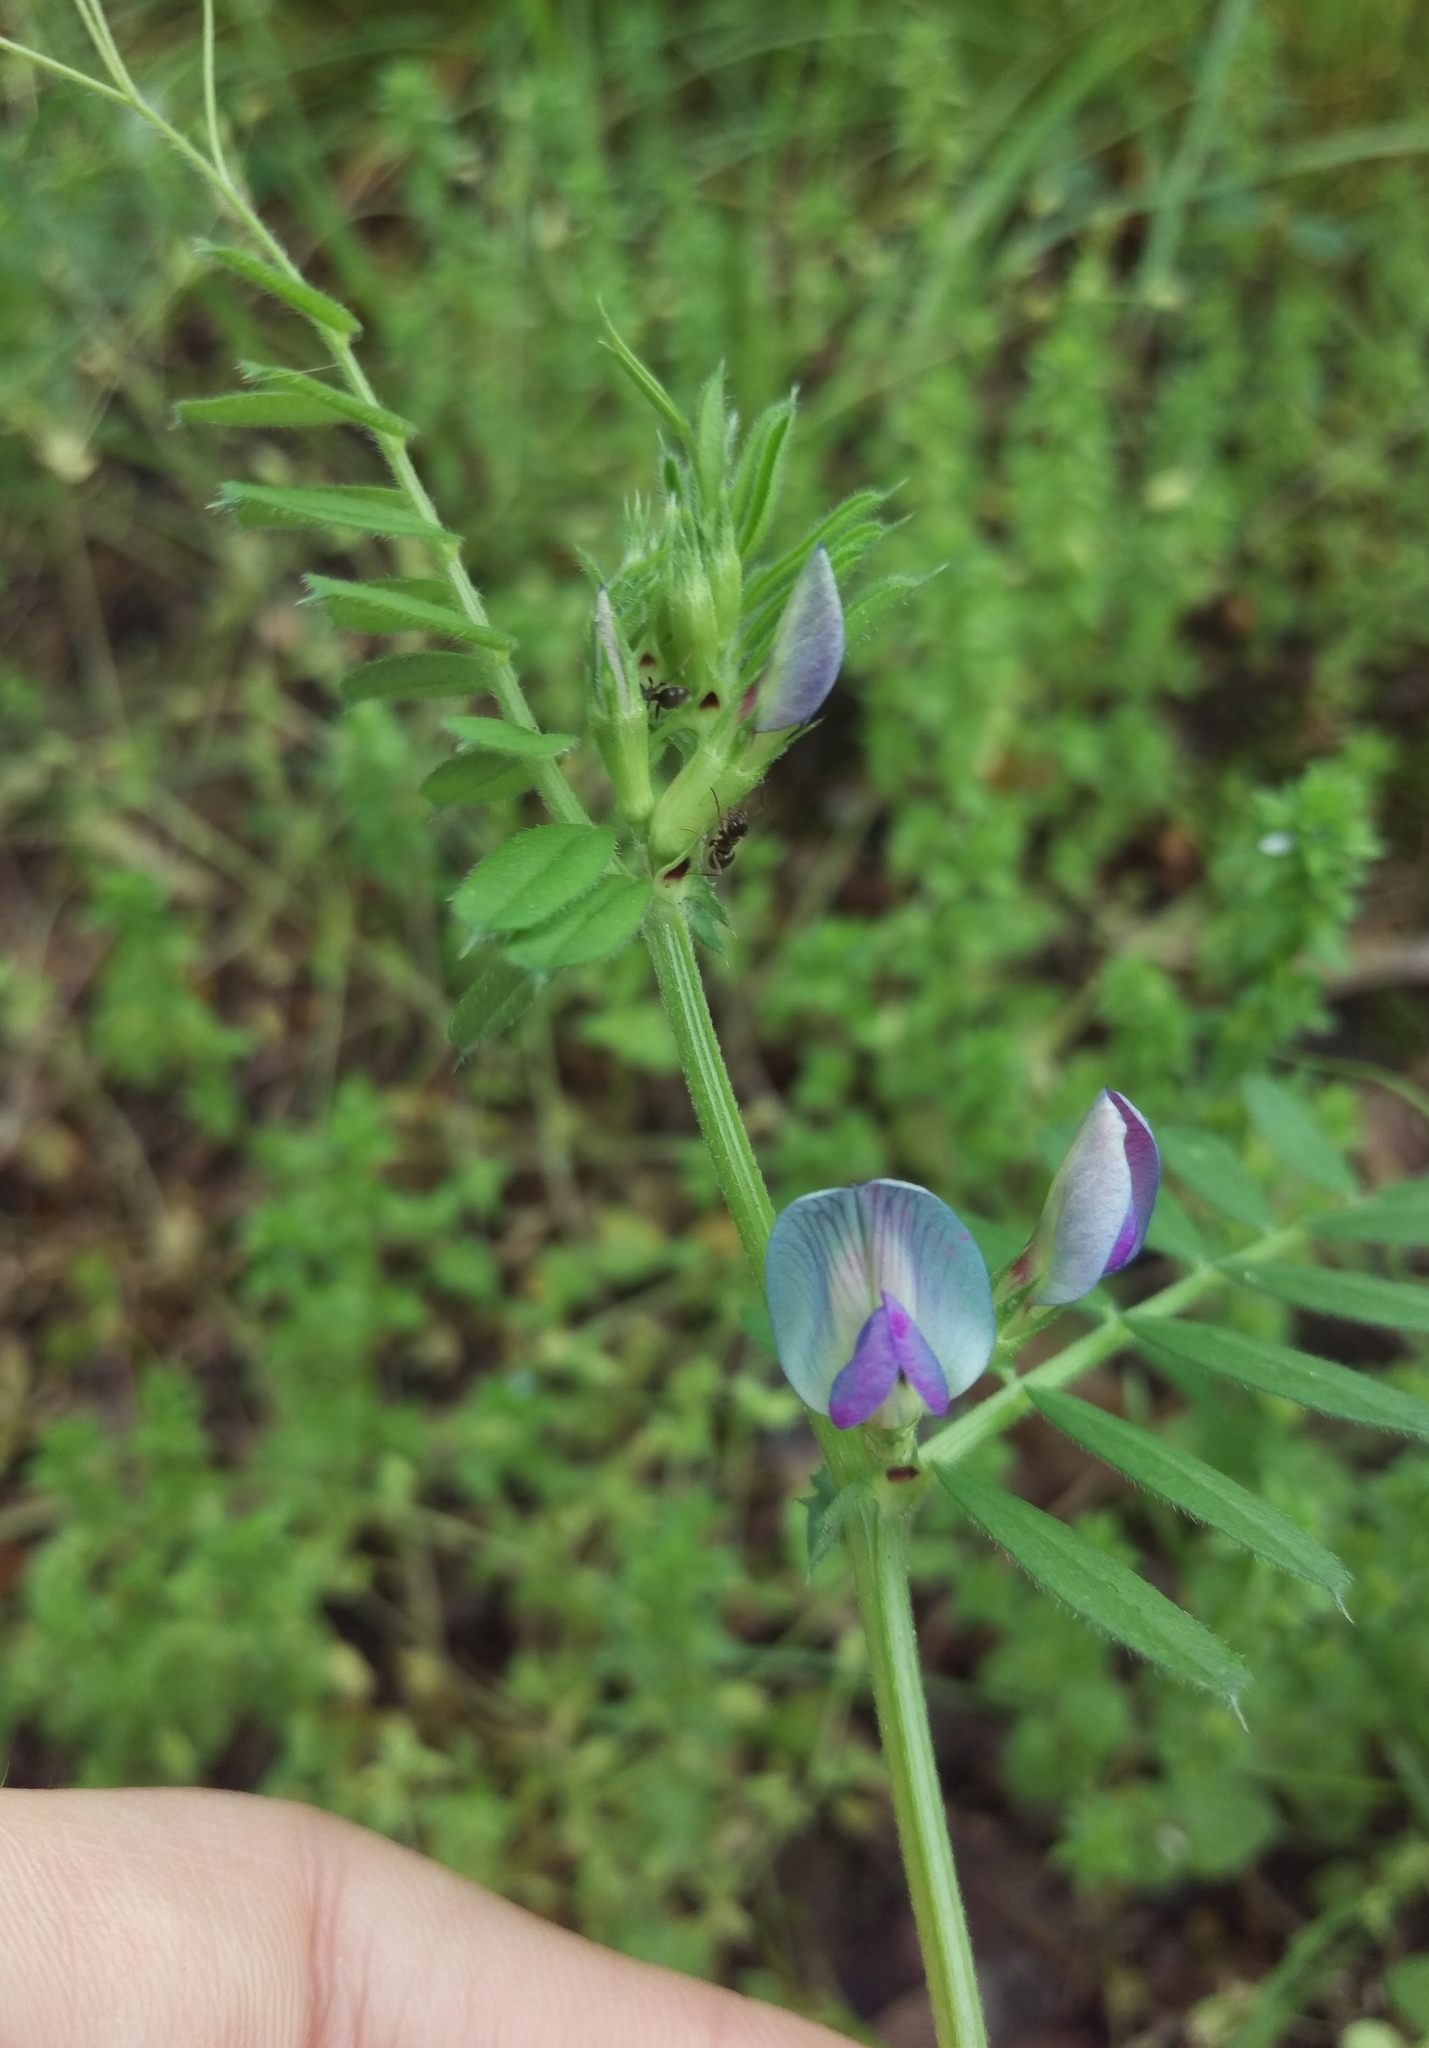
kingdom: Plantae
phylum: Tracheophyta
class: Magnoliopsida
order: Fabales
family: Fabaceae
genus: Vicia
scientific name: Vicia sativa
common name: Garden vetch
